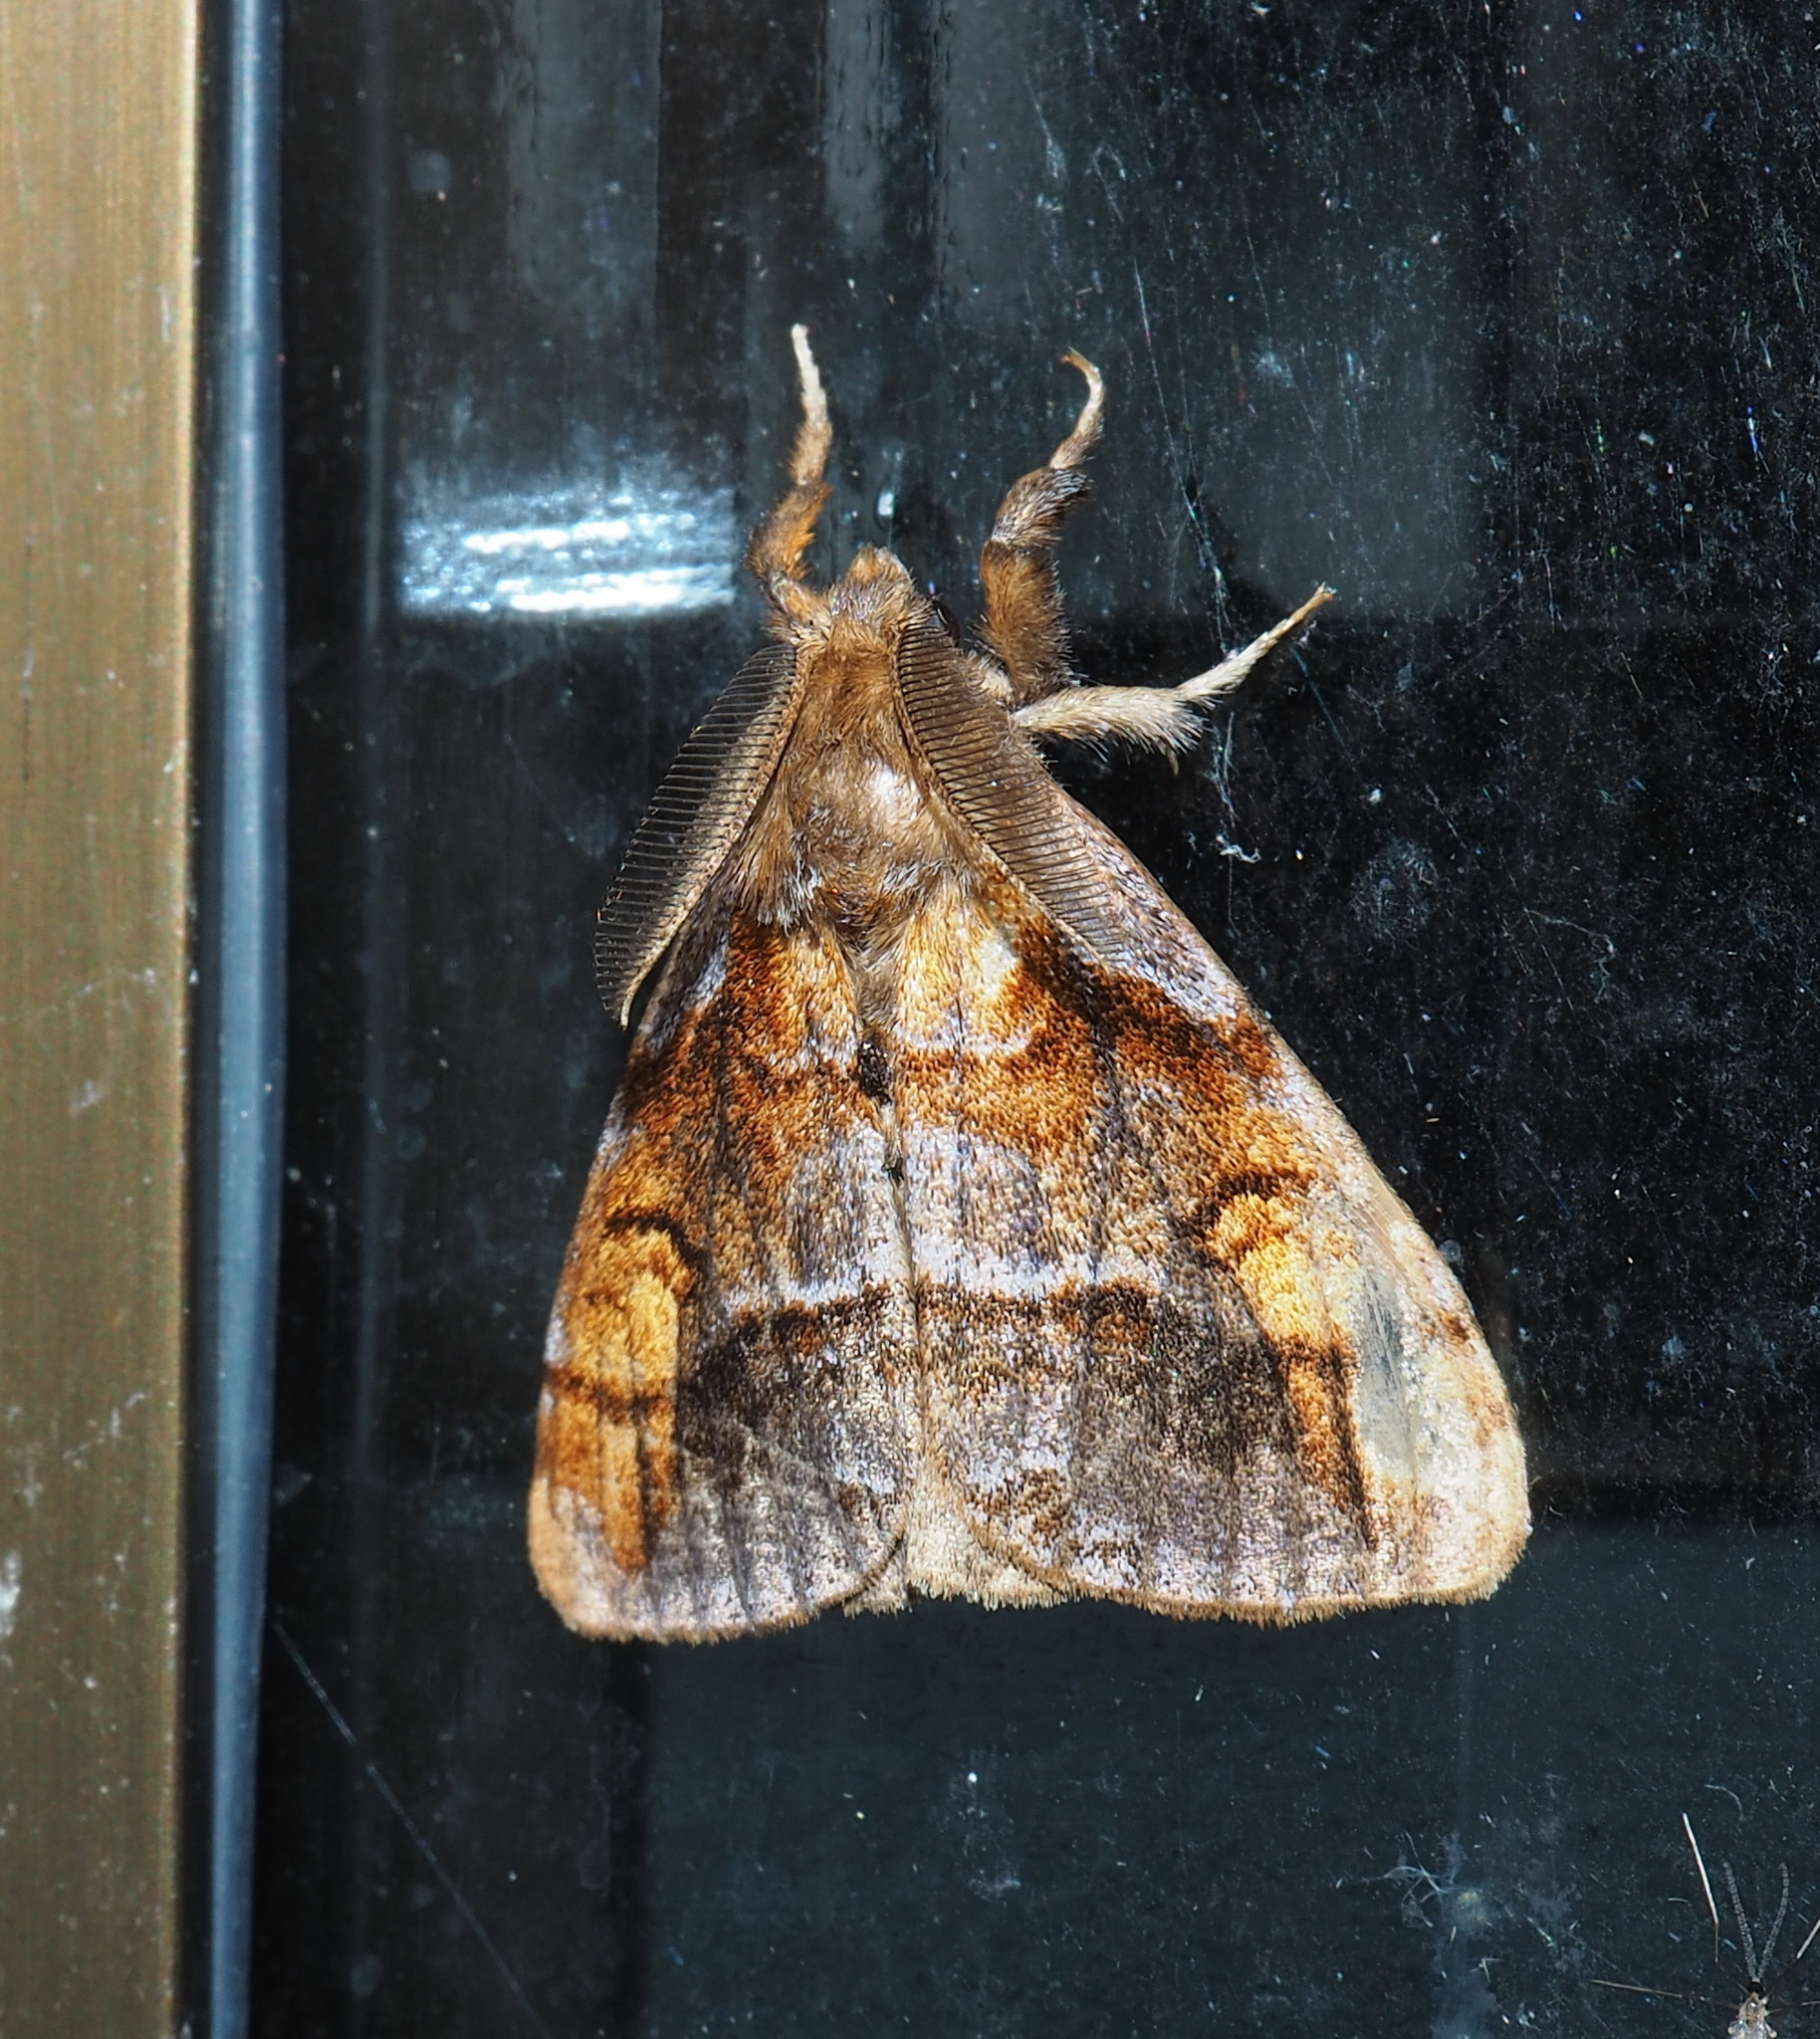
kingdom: Animalia
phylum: Arthropoda
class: Insecta
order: Lepidoptera
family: Erebidae
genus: Cifuna
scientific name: Cifuna locuples
